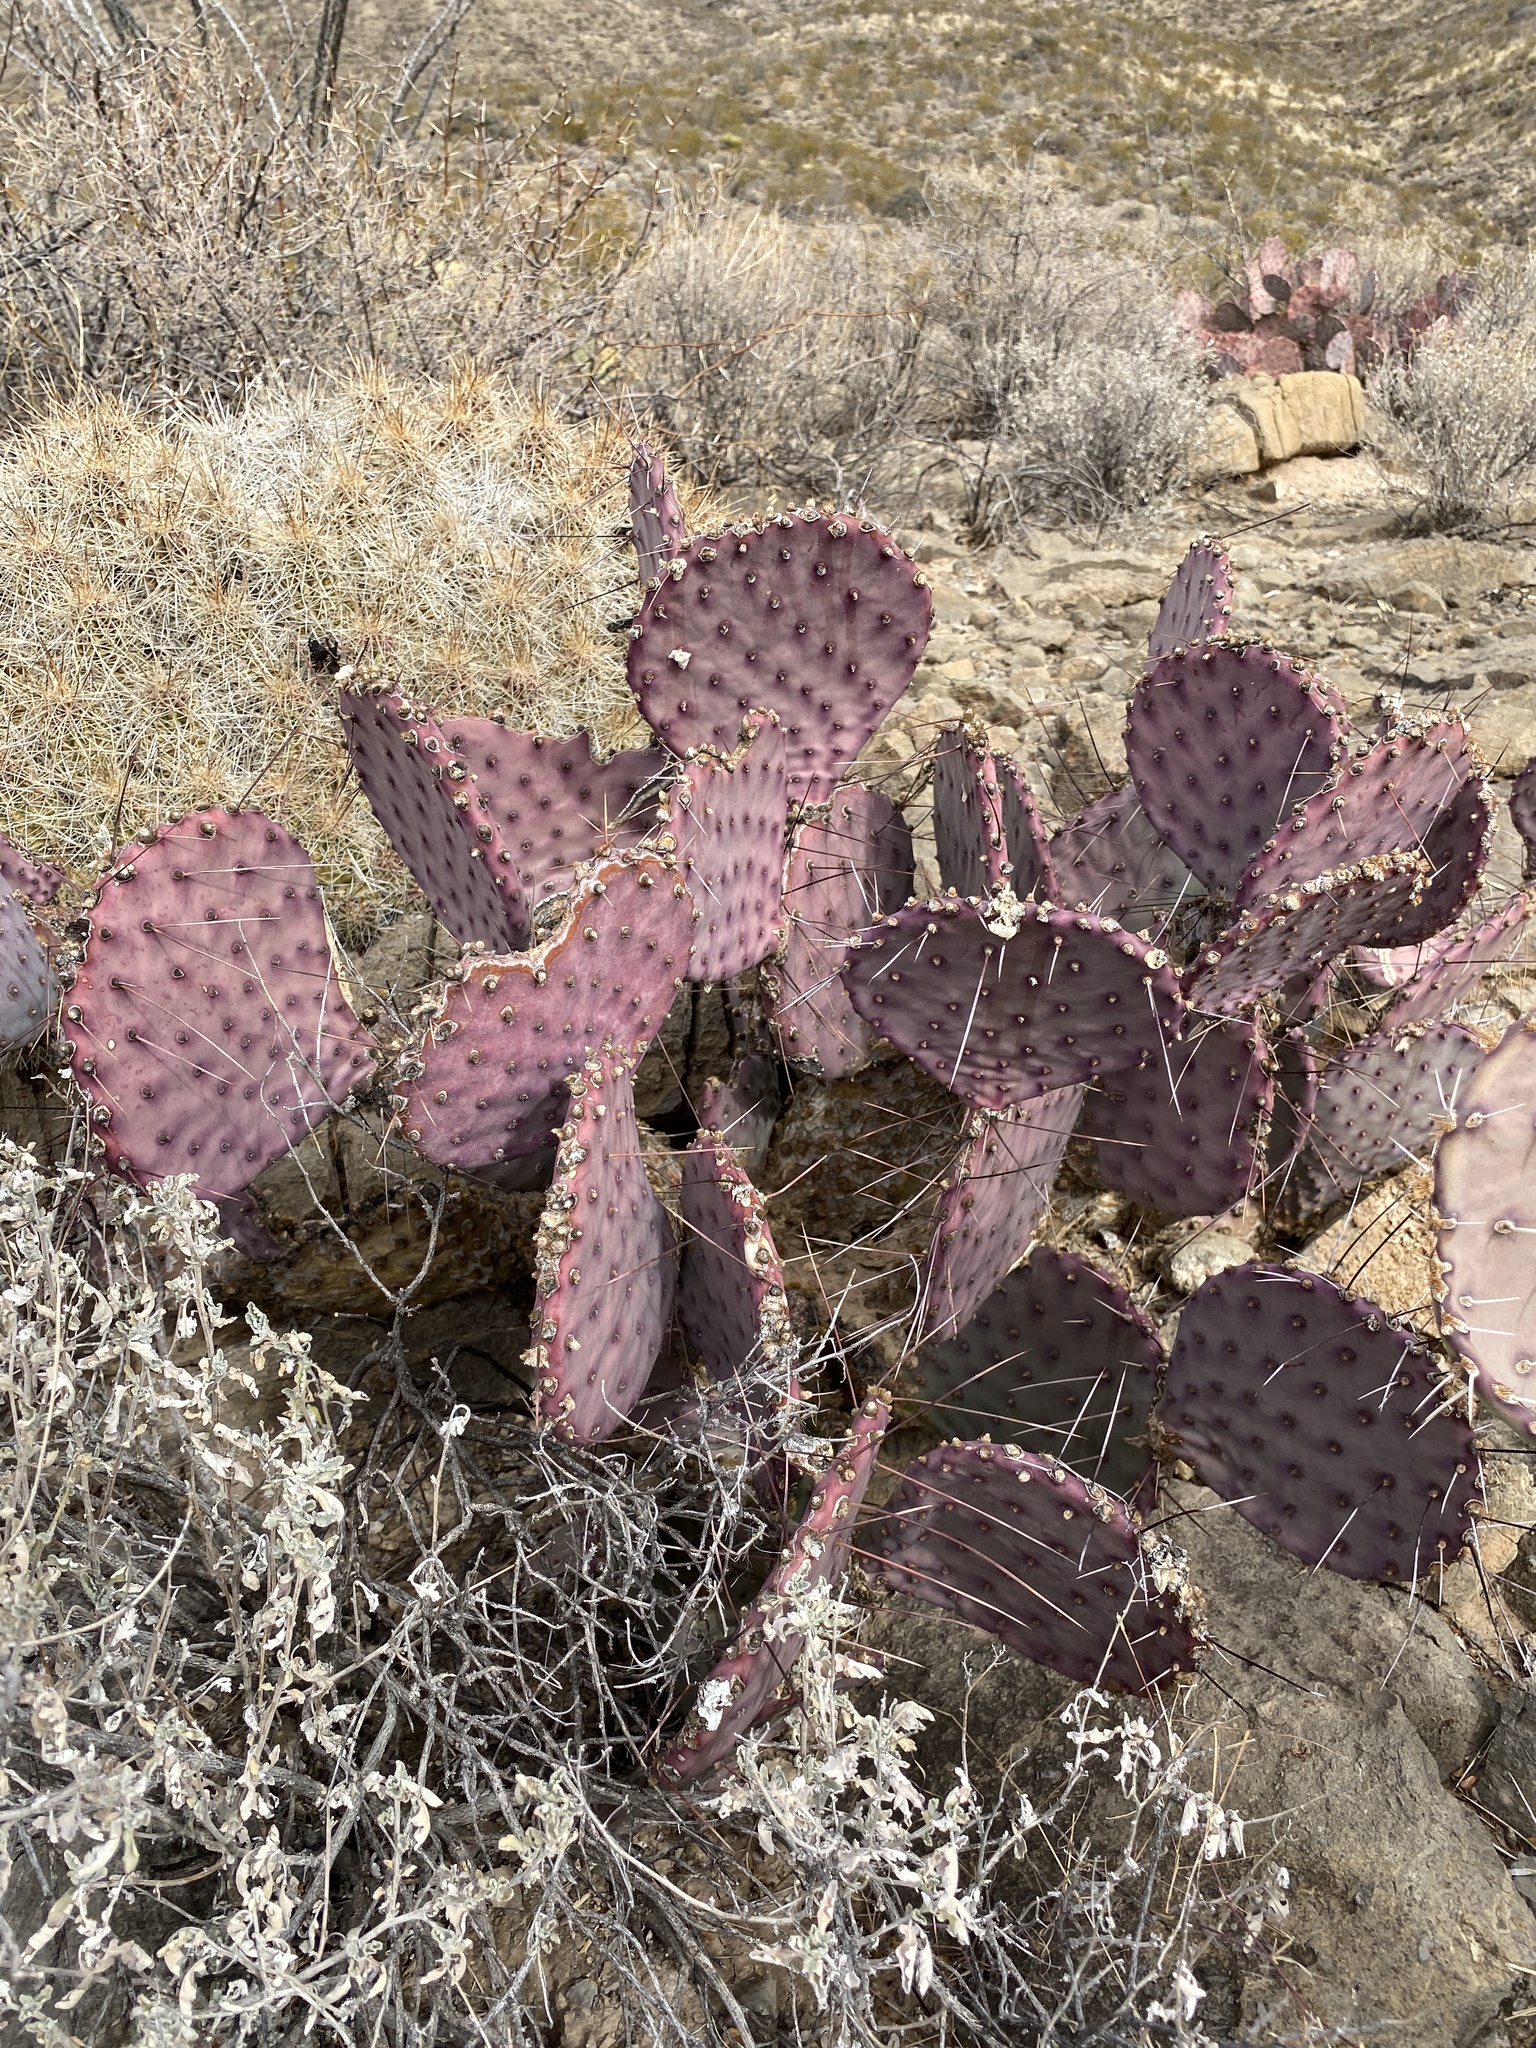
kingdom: Plantae
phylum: Tracheophyta
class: Magnoliopsida
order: Caryophyllales
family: Cactaceae
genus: Opuntia
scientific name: Opuntia macrocentra
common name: Purple prickly-pear
